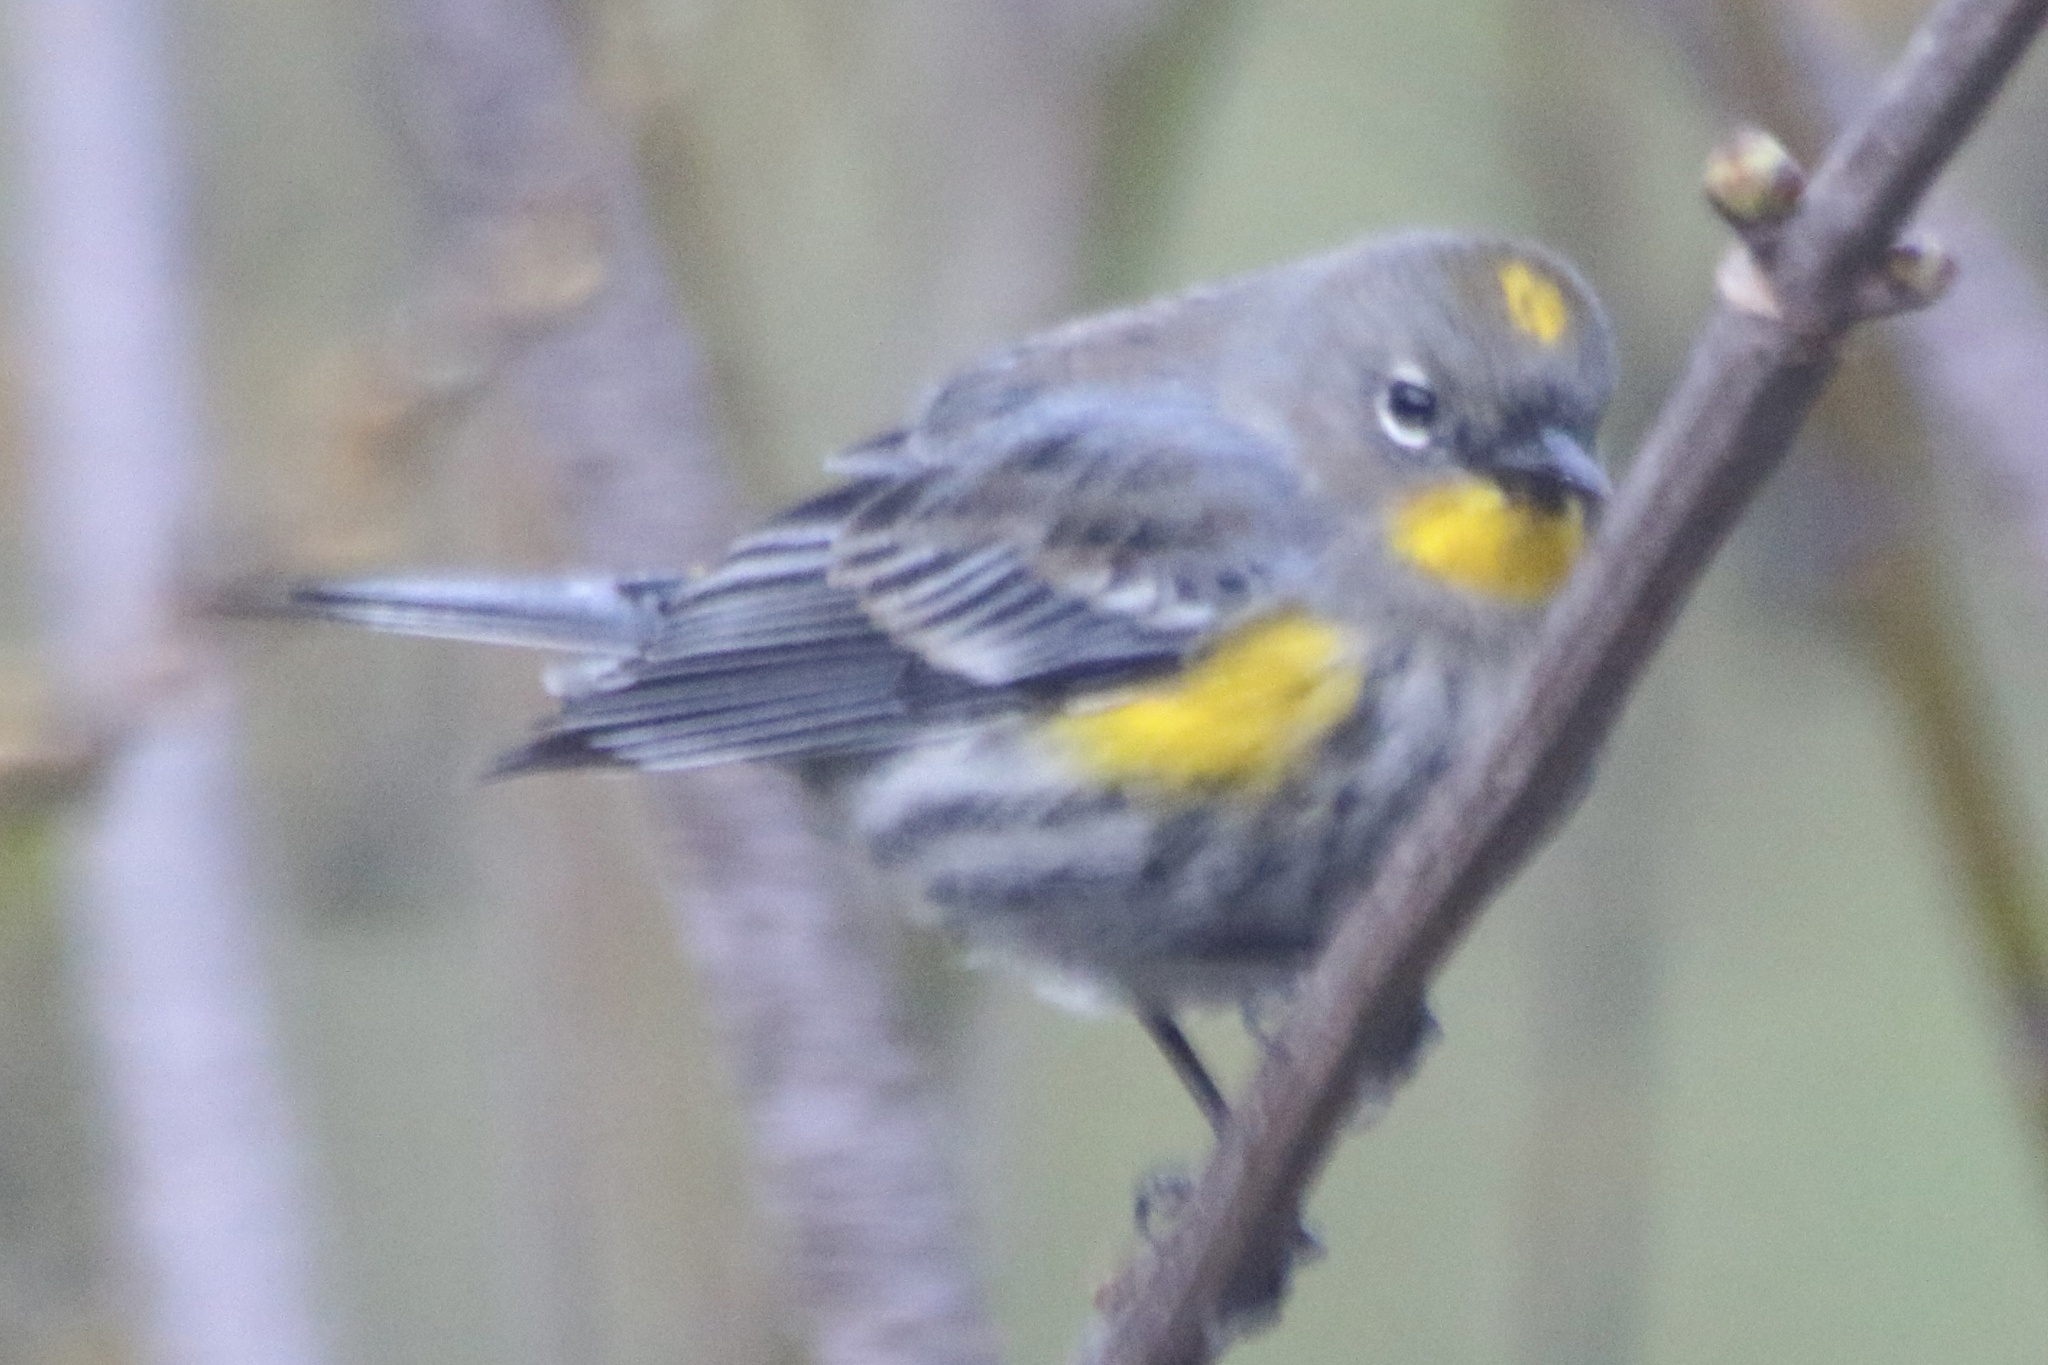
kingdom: Animalia
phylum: Chordata
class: Aves
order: Passeriformes
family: Parulidae
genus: Setophaga
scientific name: Setophaga coronata
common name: Myrtle warbler
